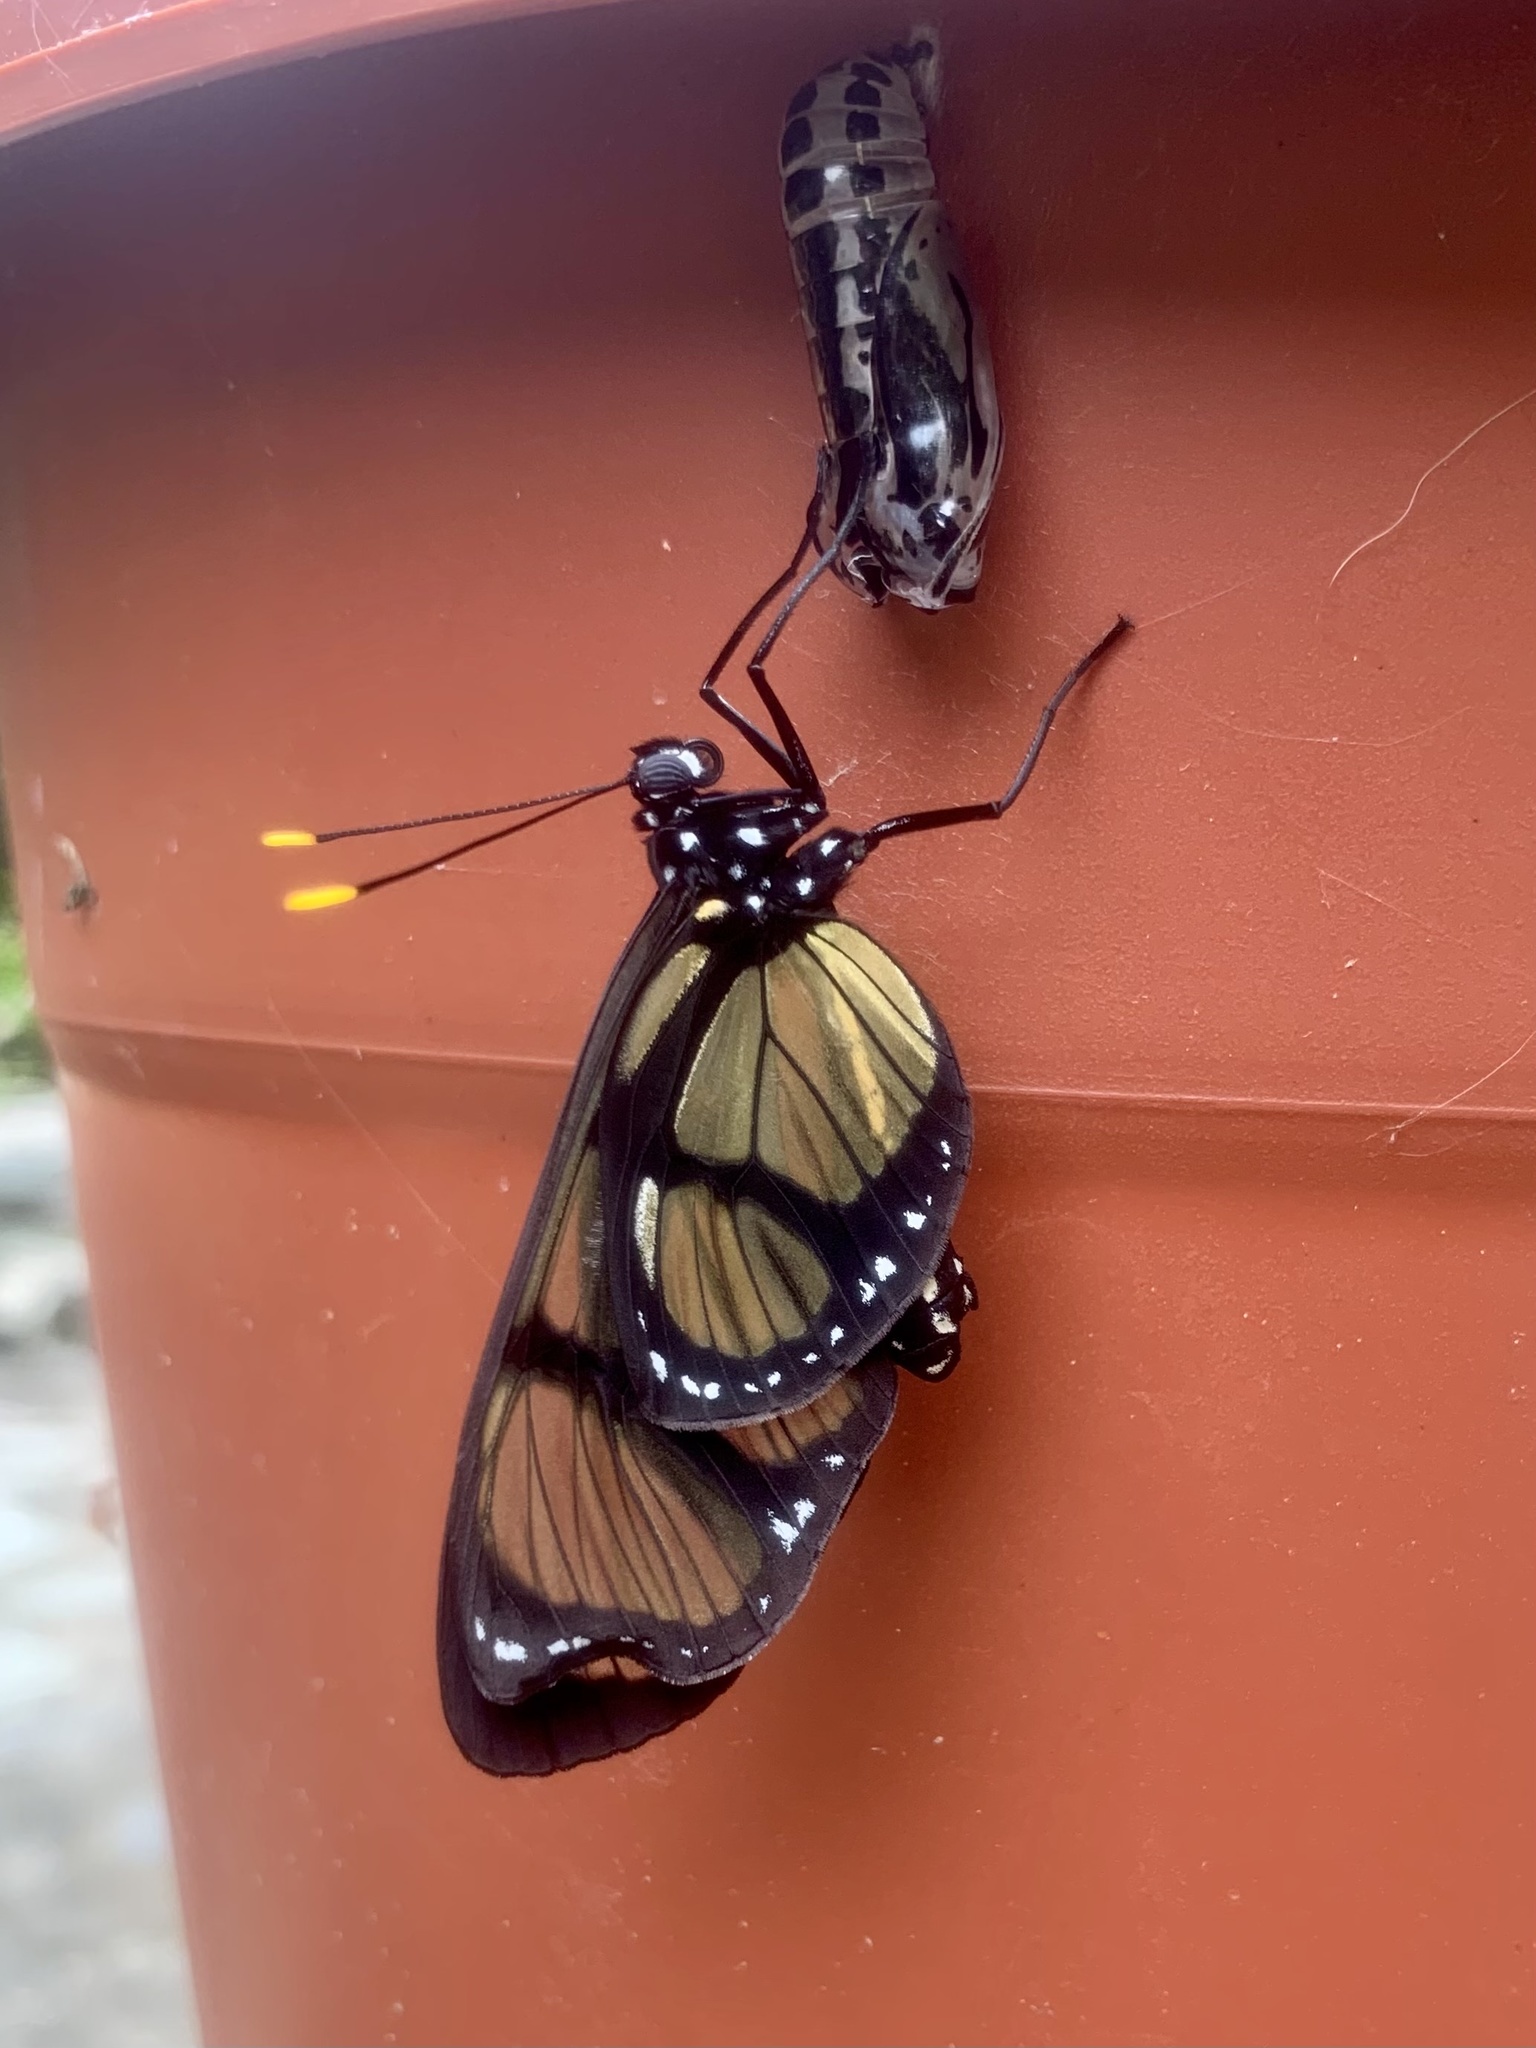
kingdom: Animalia
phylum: Arthropoda
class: Insecta
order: Lepidoptera
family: Nymphalidae
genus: Methona
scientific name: Methona confusa
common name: Confusa tigerwing
